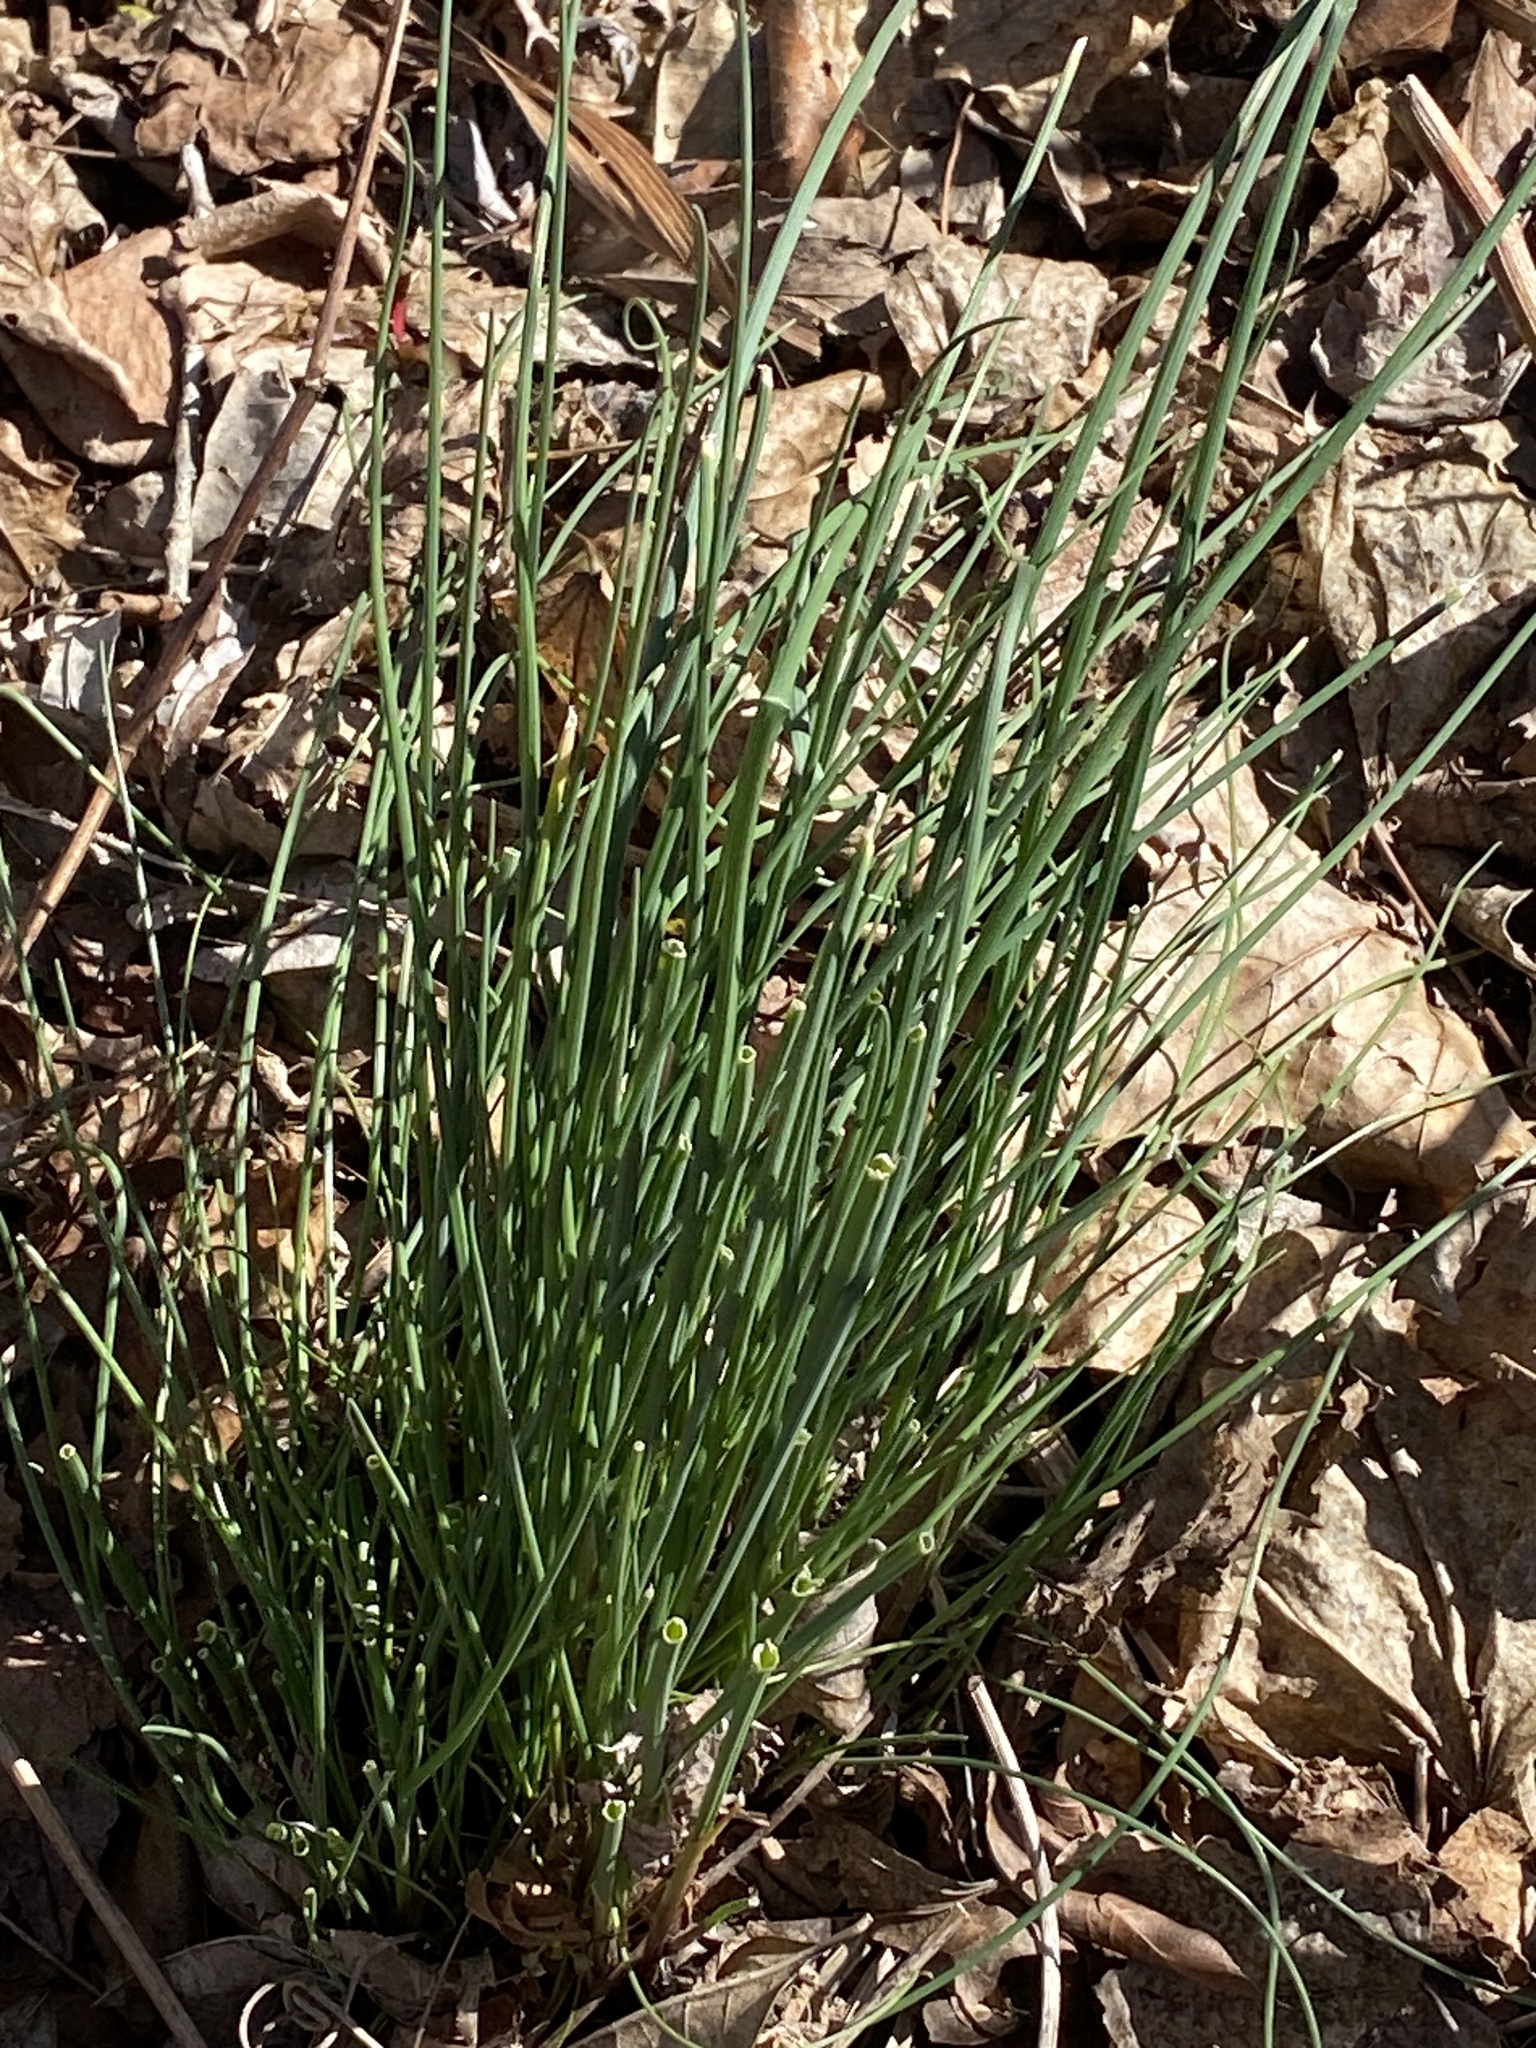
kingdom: Plantae
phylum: Tracheophyta
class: Liliopsida
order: Asparagales
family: Amaryllidaceae
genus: Allium
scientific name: Allium vineale
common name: Crow garlic
